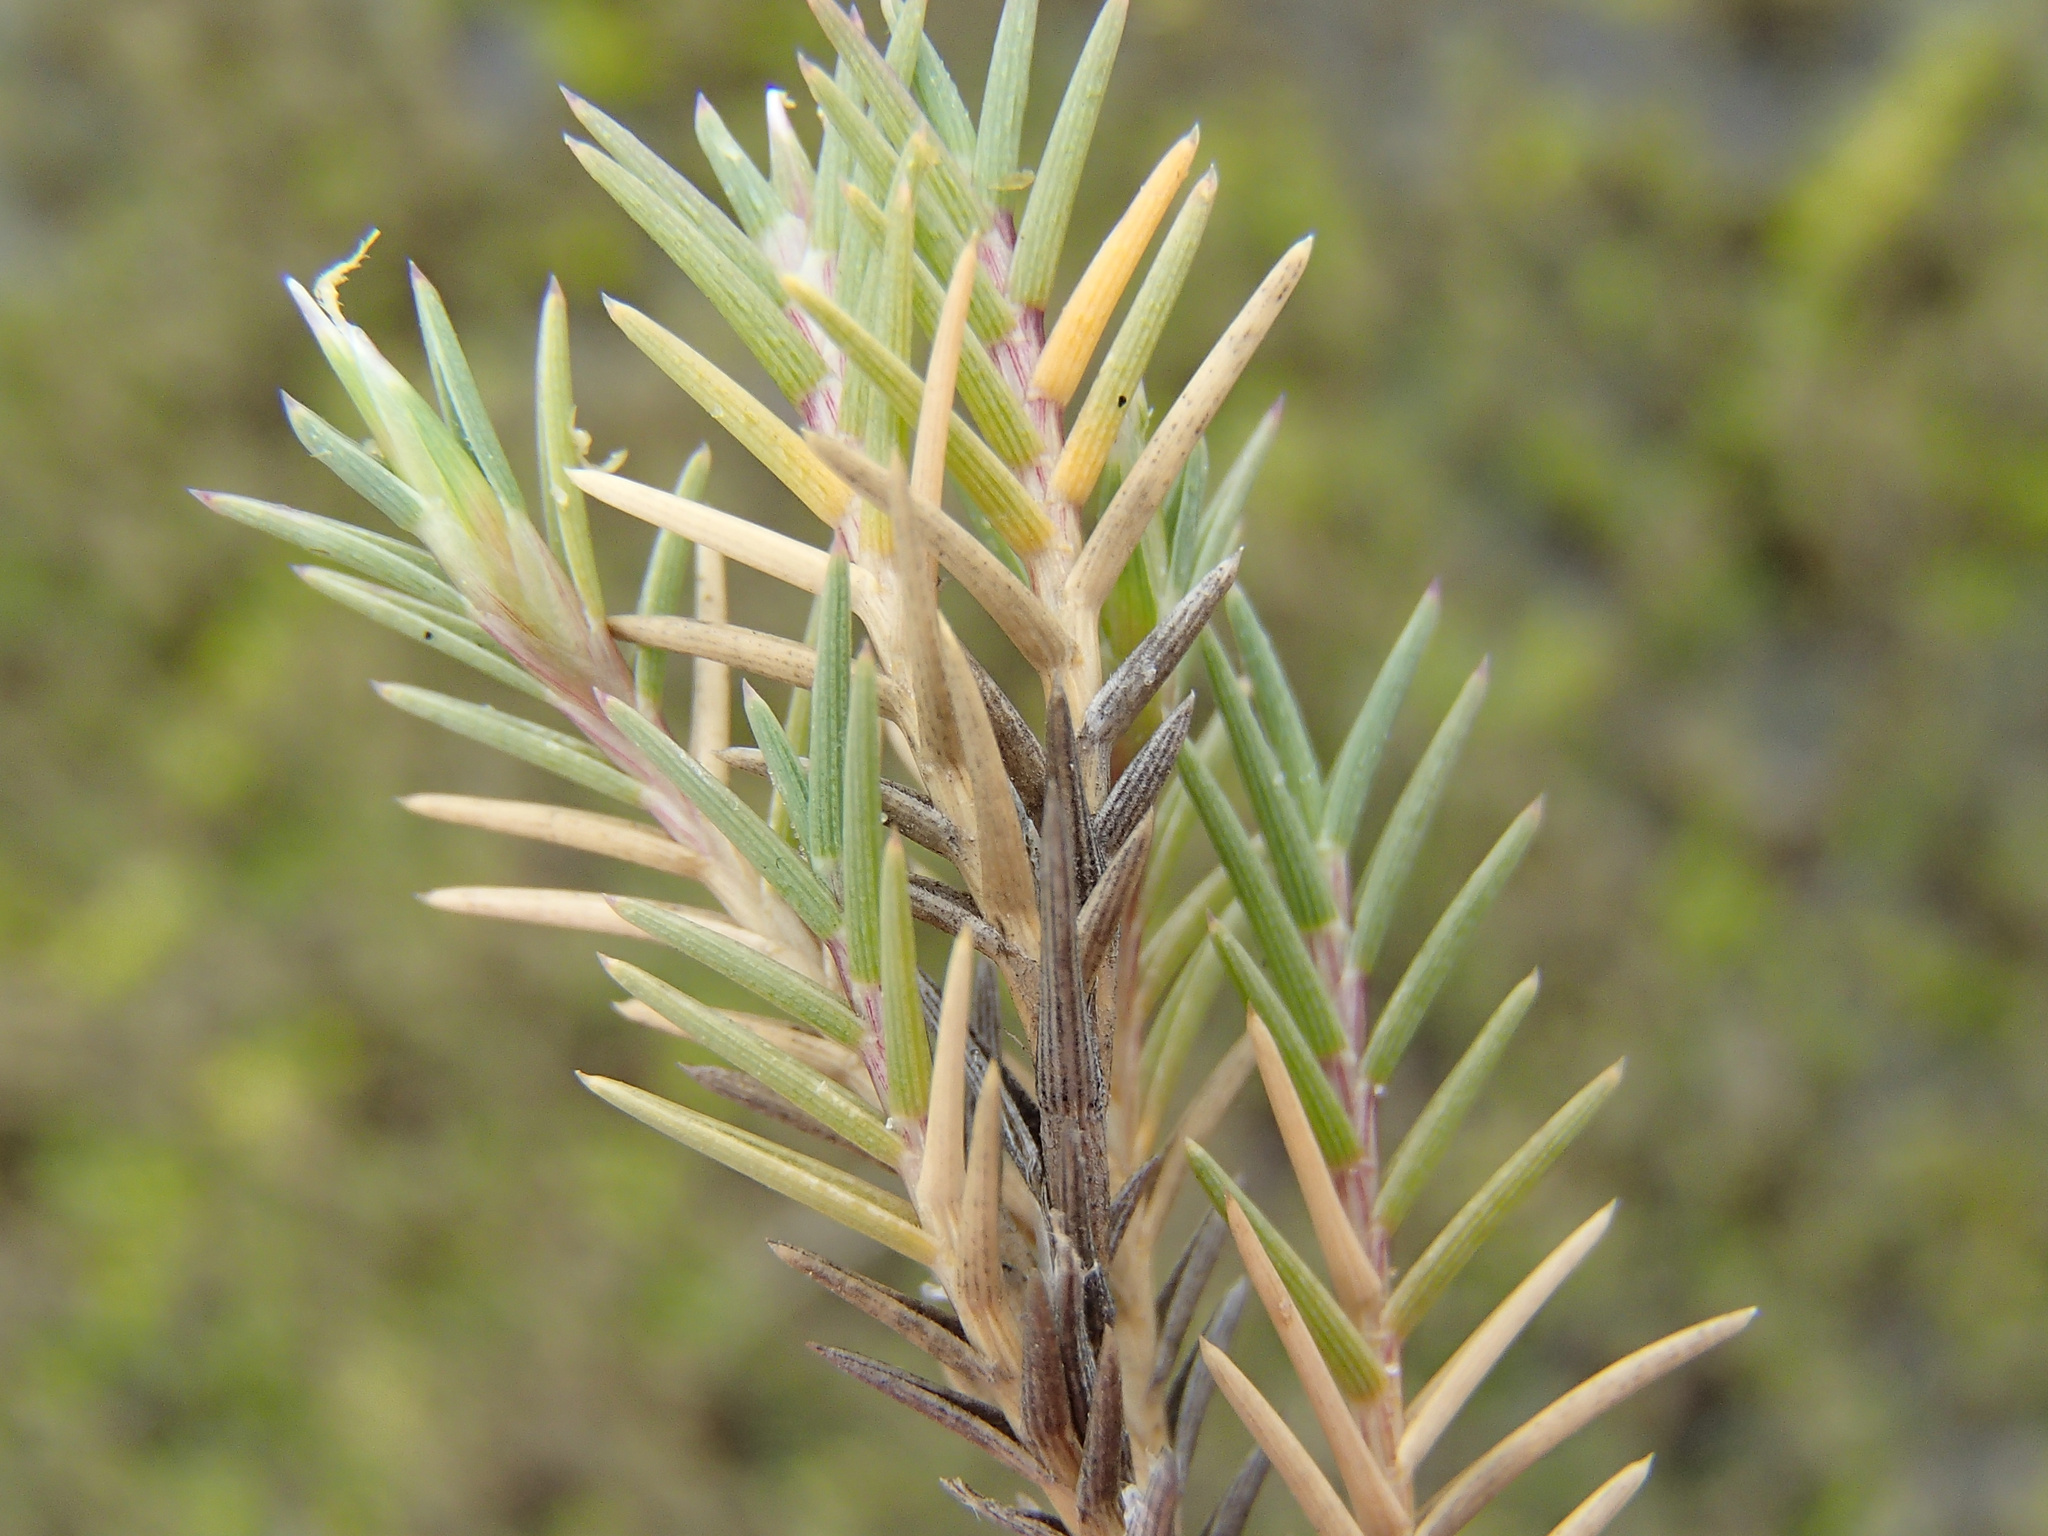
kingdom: Plantae
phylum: Tracheophyta
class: Liliopsida
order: Poales
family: Poaceae
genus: Distichlis
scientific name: Distichlis littoralis
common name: Shore grass
